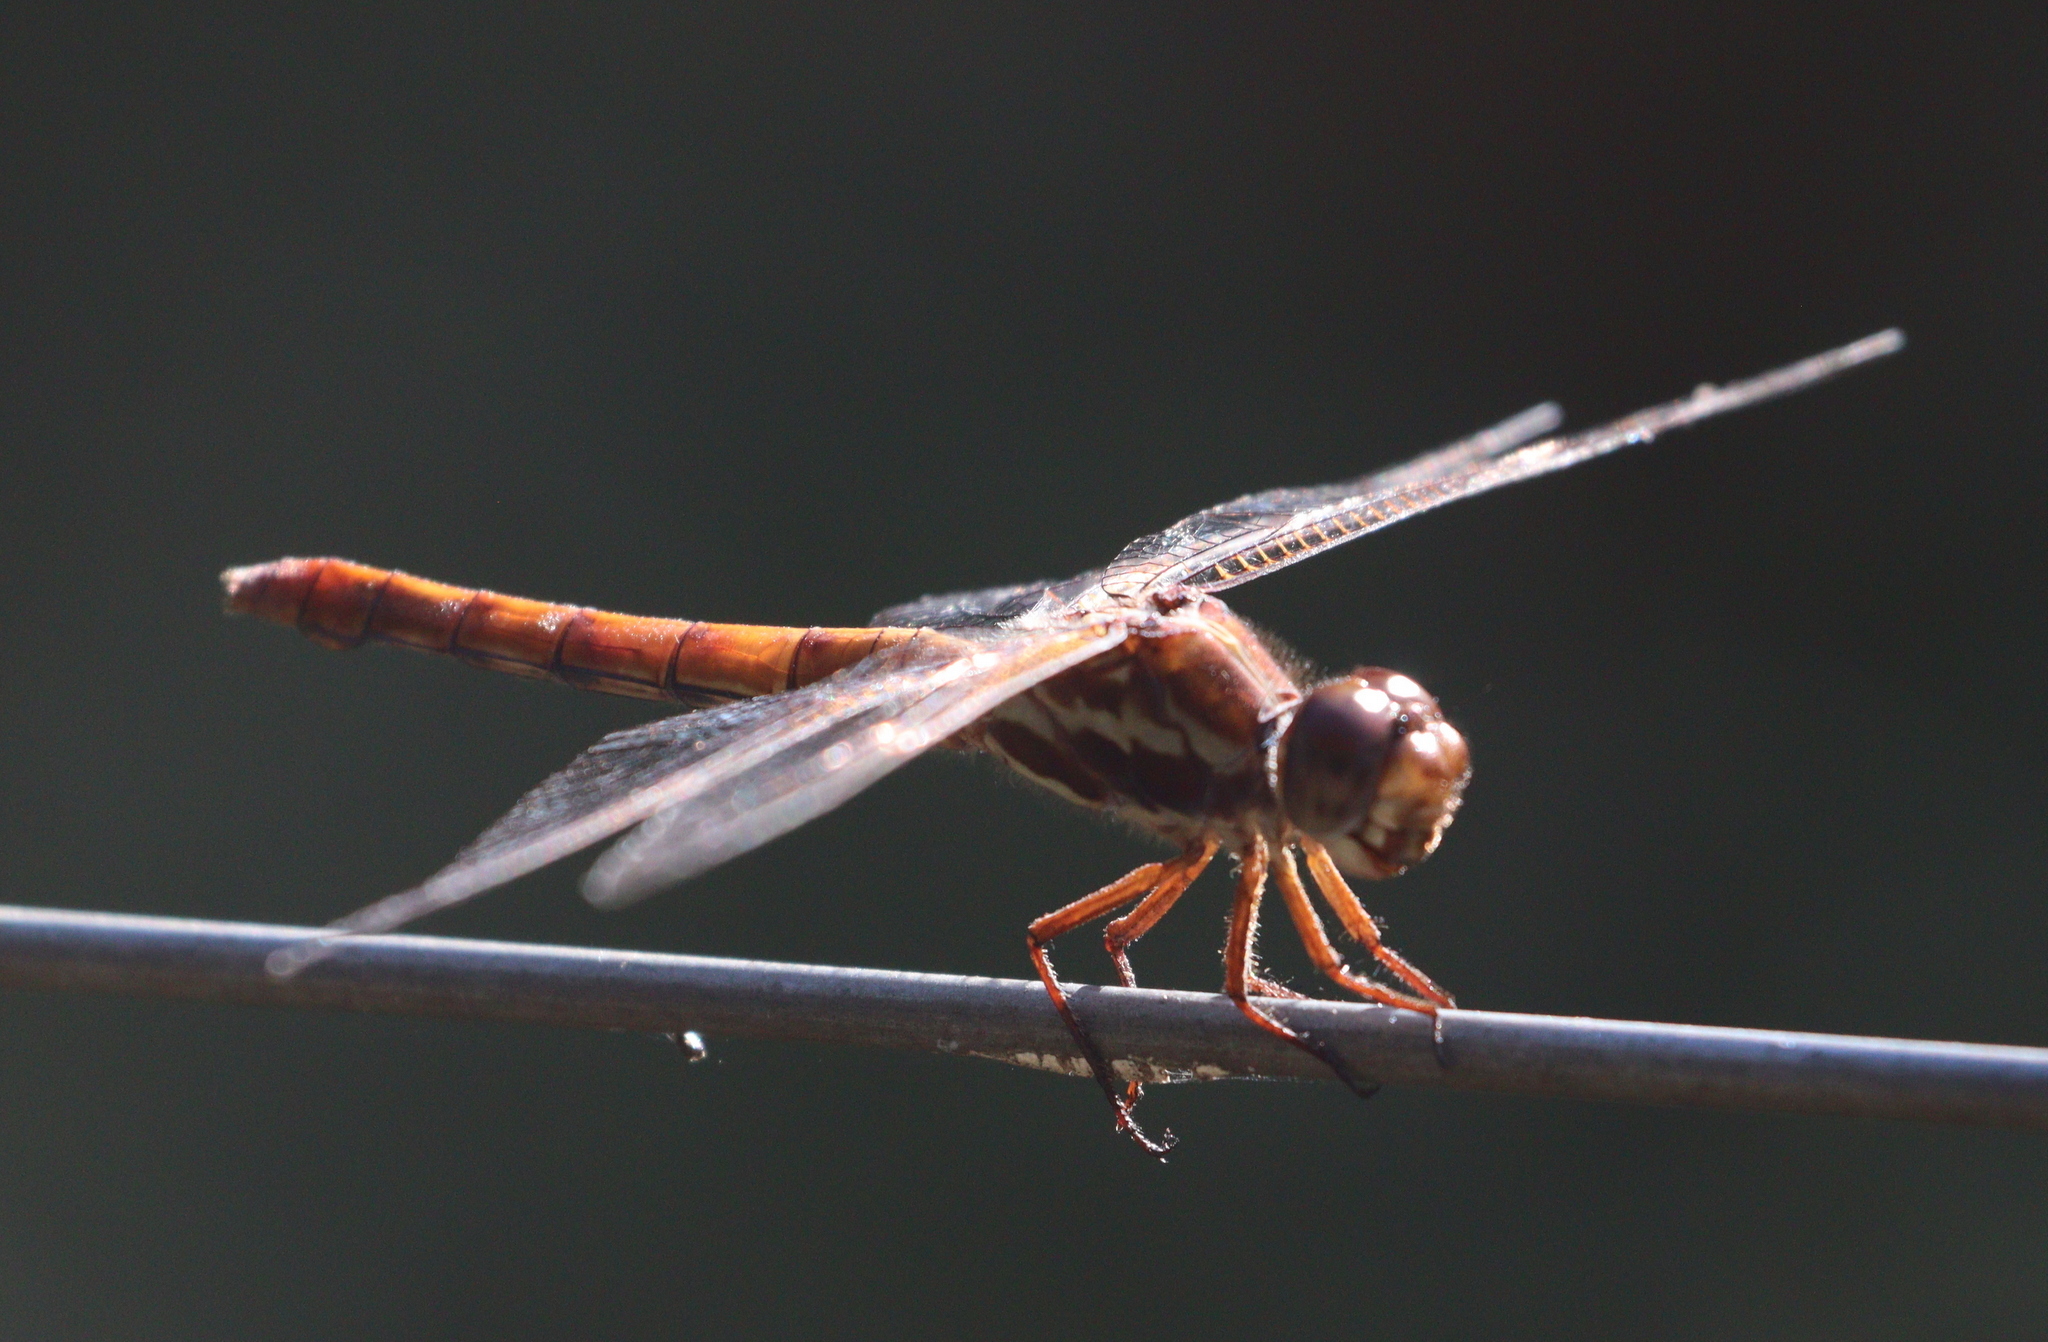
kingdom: Animalia
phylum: Arthropoda
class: Insecta
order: Odonata
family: Libellulidae
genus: Orthemis
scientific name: Orthemis aequilibris
